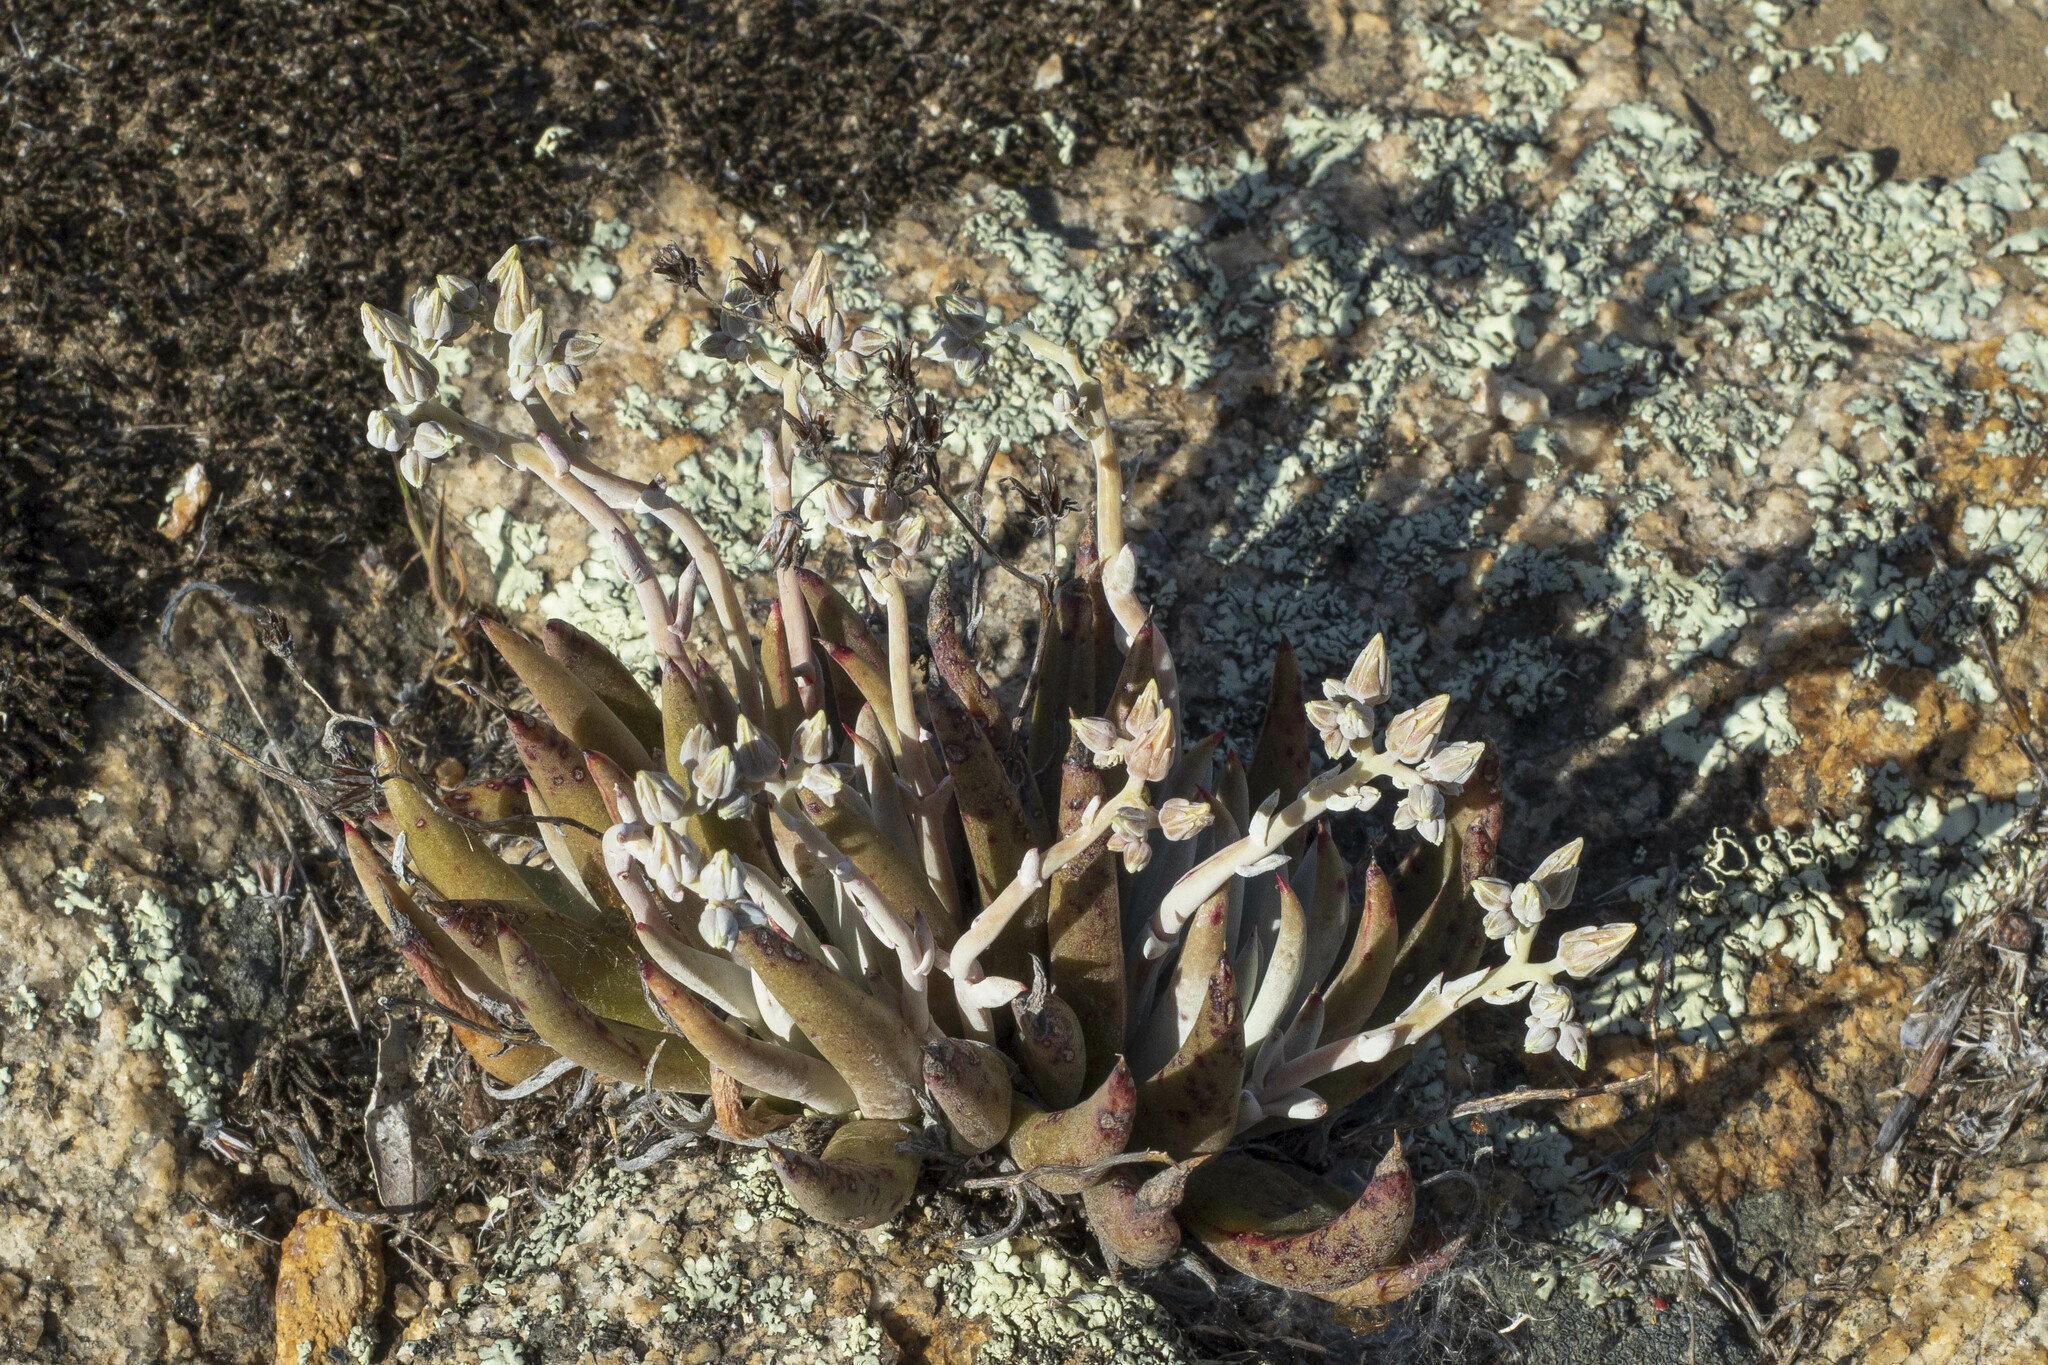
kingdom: Plantae
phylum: Tracheophyta
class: Magnoliopsida
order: Saxifragales
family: Crassulaceae
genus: Dudleya
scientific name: Dudleya abramsii
